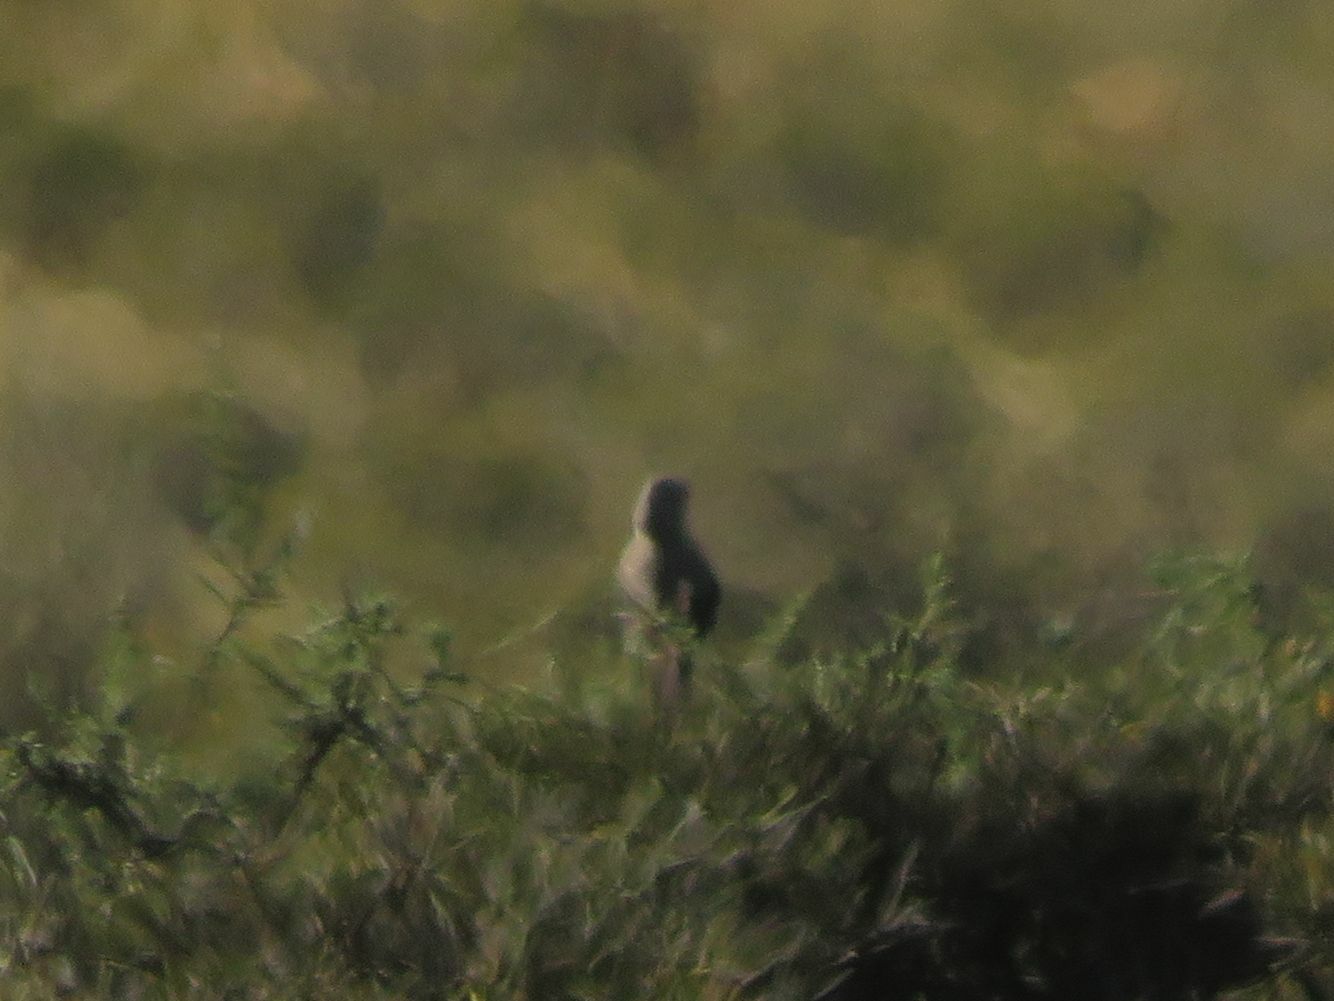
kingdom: Animalia
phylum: Chordata
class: Aves
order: Passeriformes
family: Mimidae
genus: Mimus
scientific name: Mimus patagonicus
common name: Patagonian mockingbird
